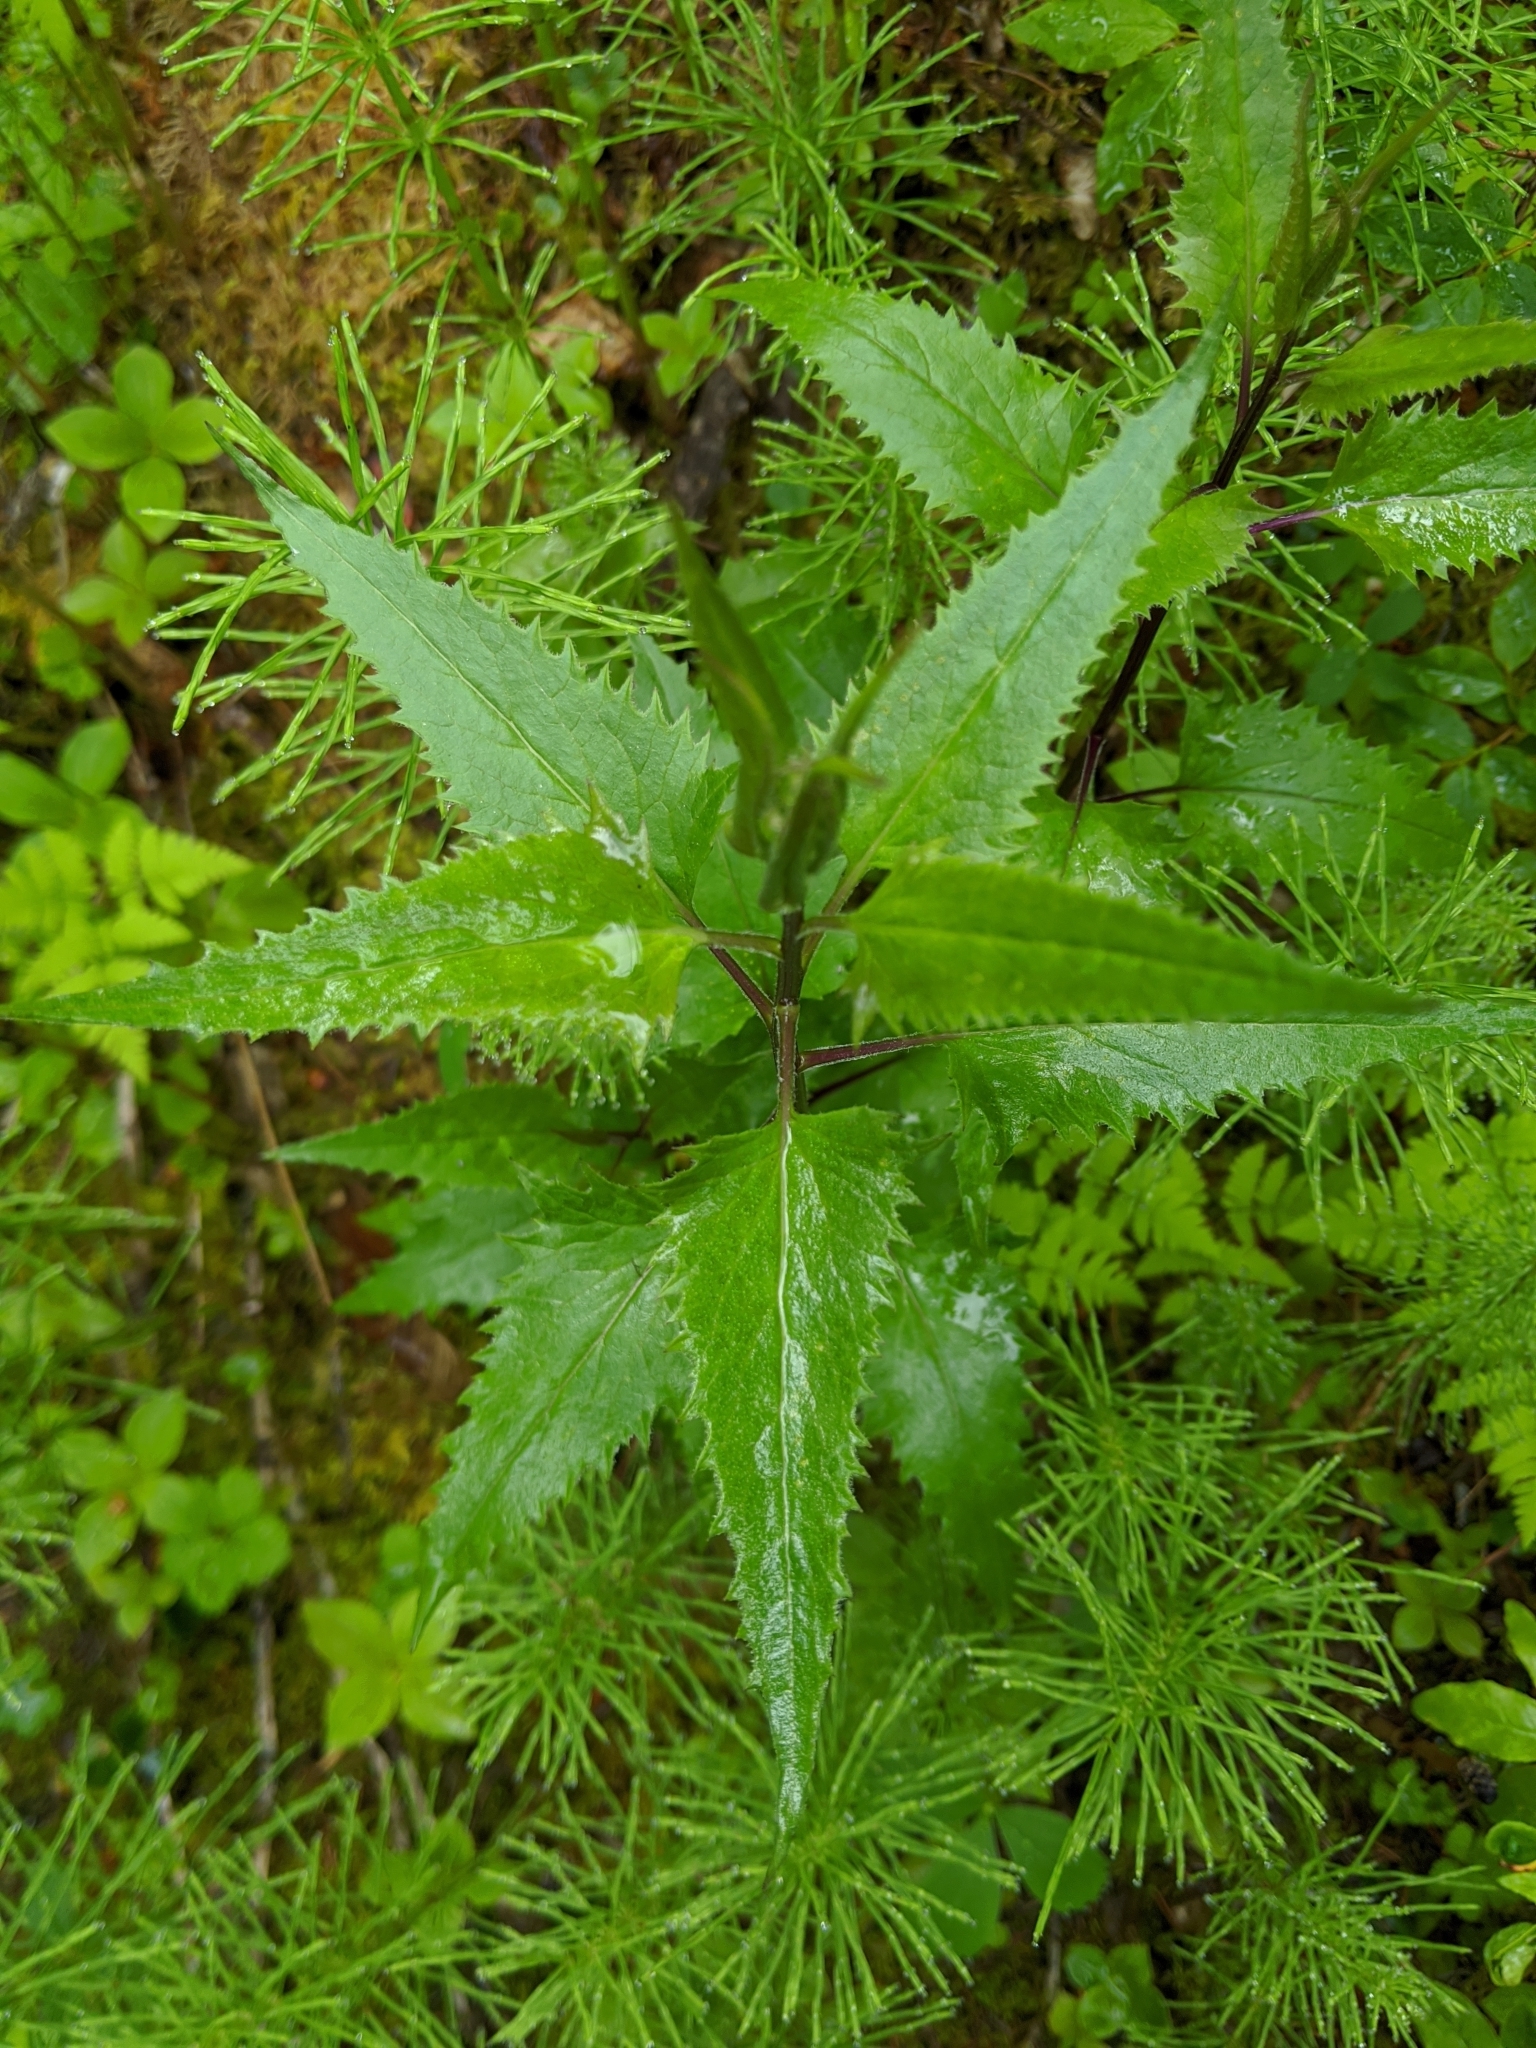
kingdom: Plantae
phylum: Tracheophyta
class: Magnoliopsida
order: Asterales
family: Asteraceae
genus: Senecio
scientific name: Senecio triangularis
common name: Arrowleaf butterweed
